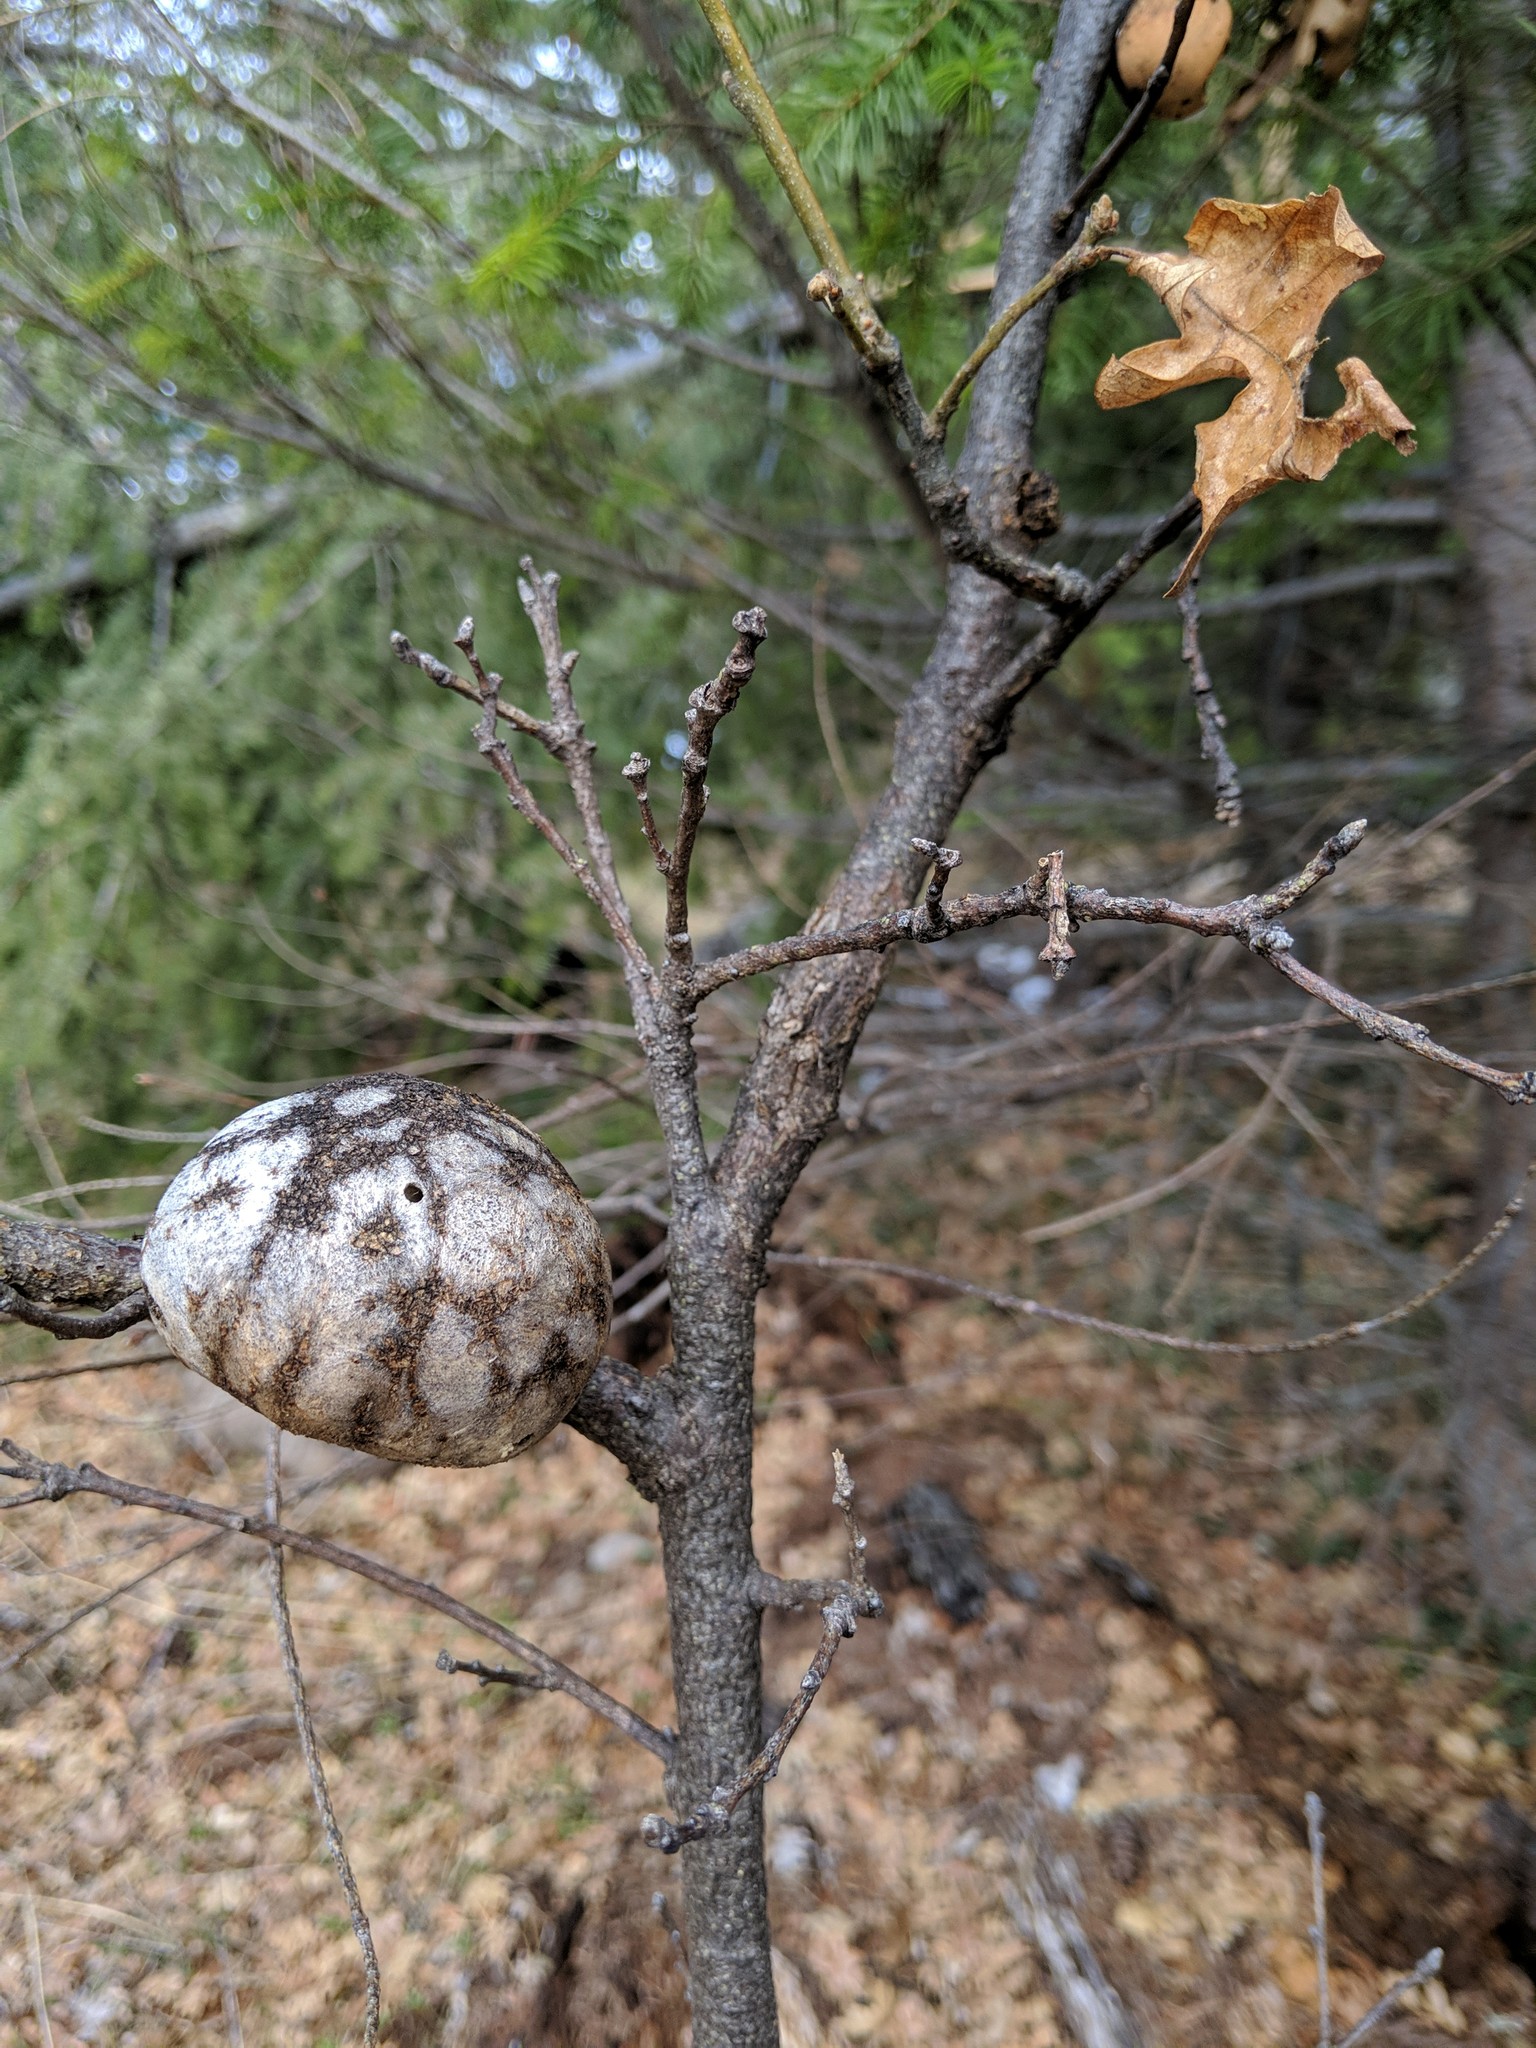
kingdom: Animalia
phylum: Arthropoda
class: Insecta
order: Hymenoptera
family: Cynipidae
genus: Andricus
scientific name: Andricus quercuscalifornicus
